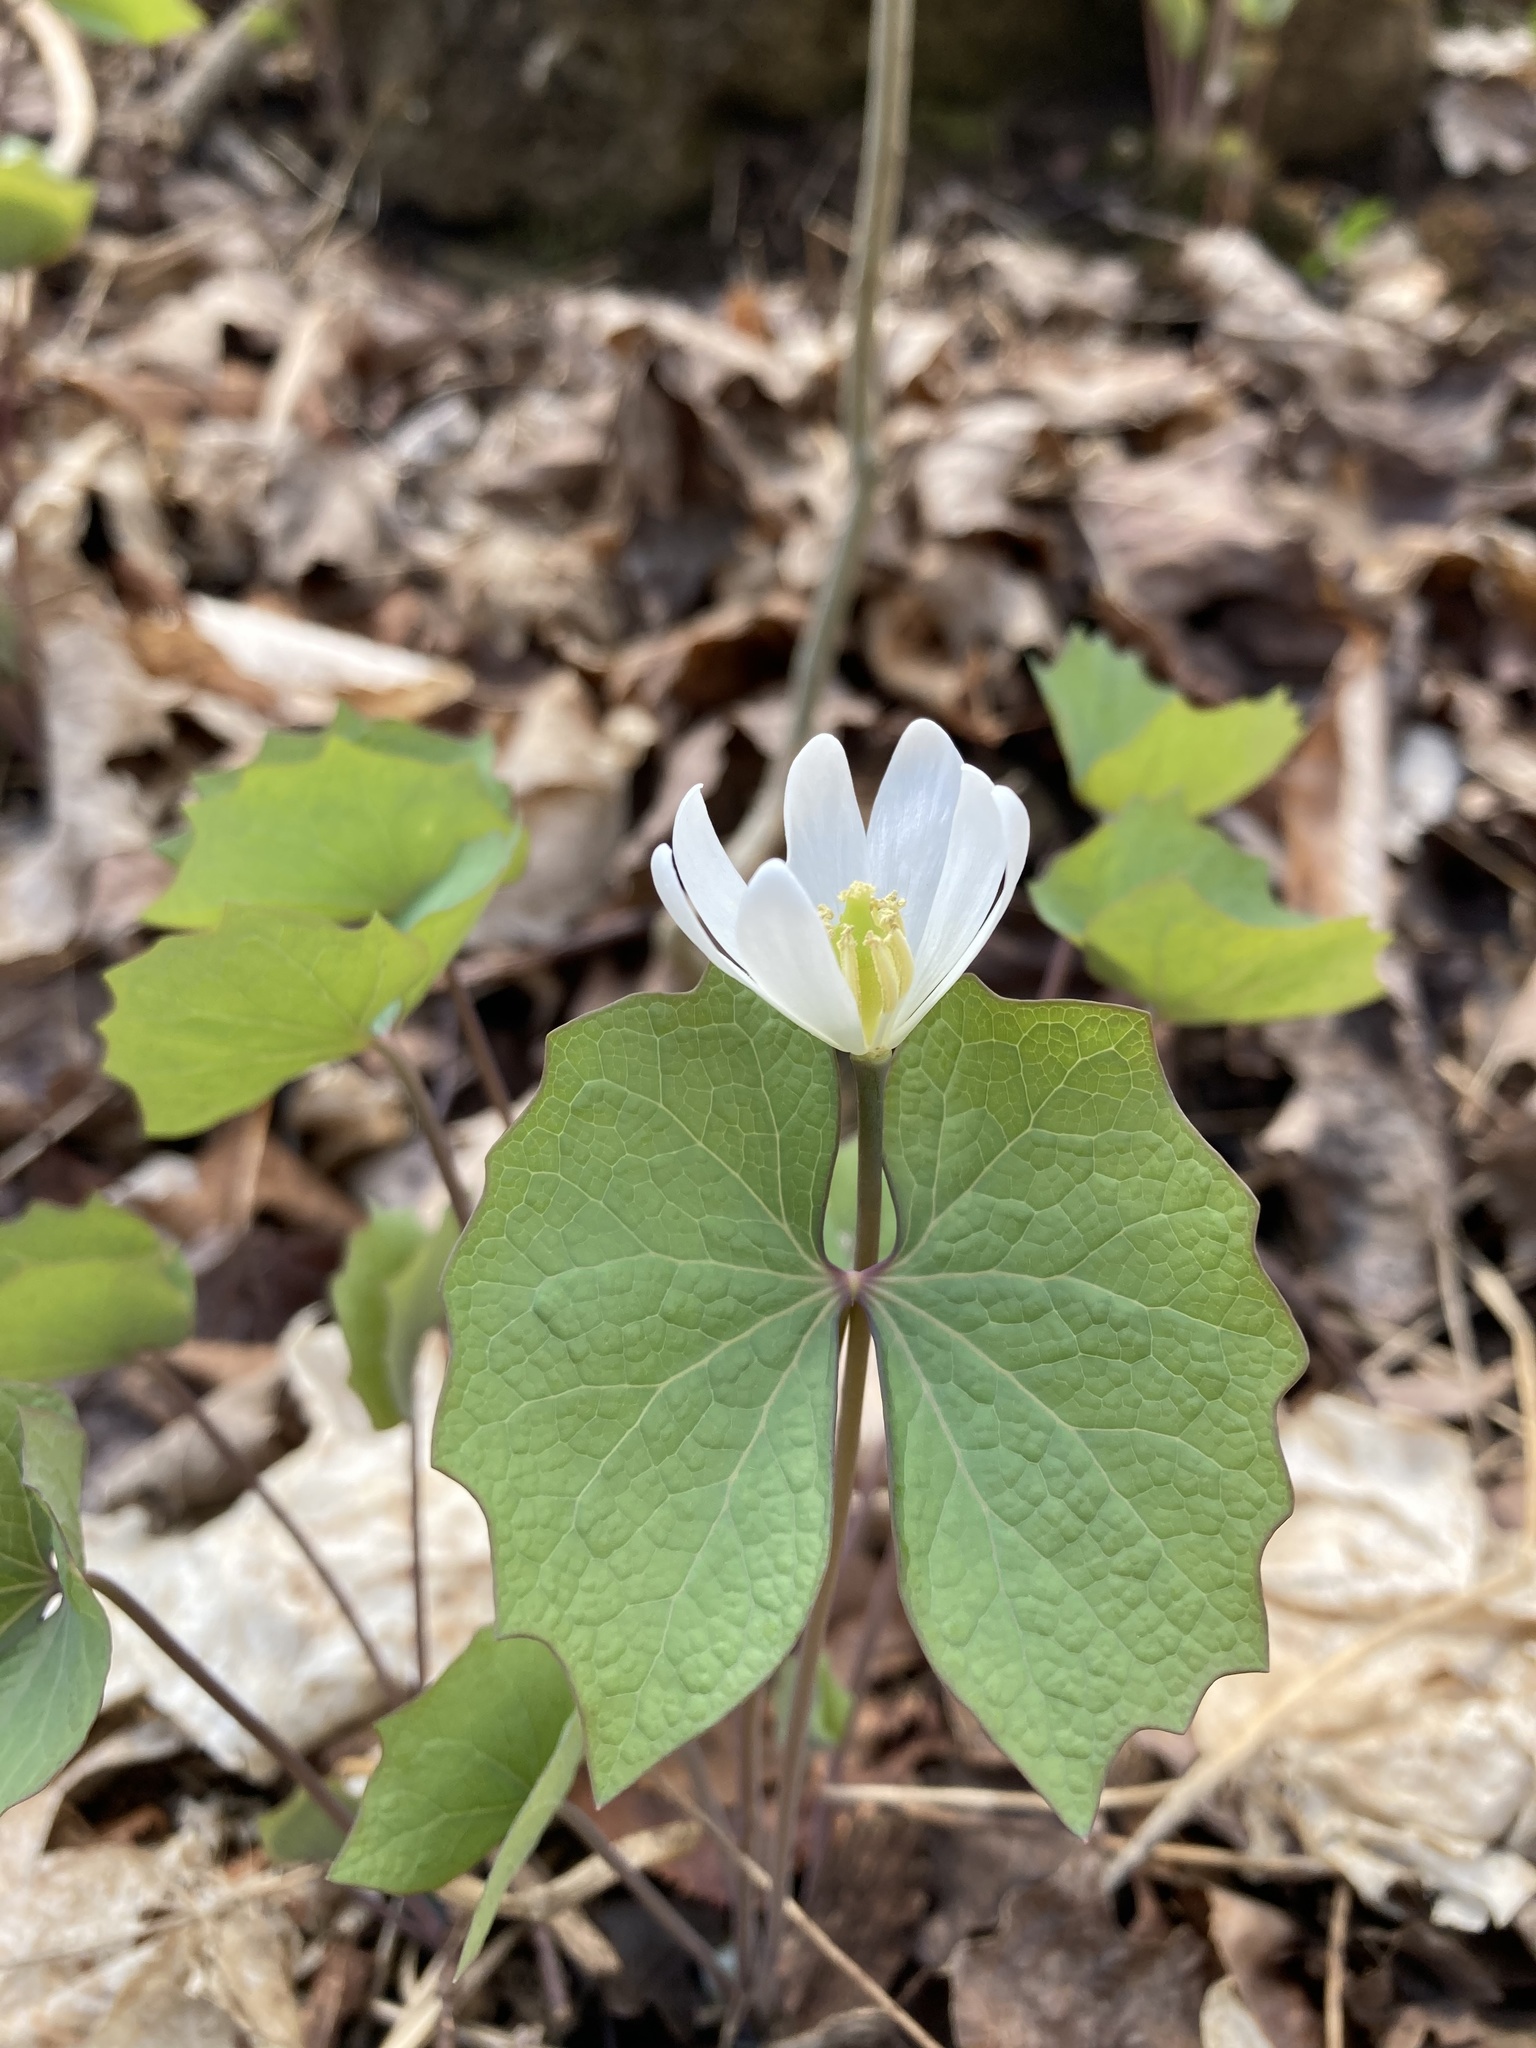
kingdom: Plantae
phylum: Tracheophyta
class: Magnoliopsida
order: Ranunculales
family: Berberidaceae
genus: Jeffersonia
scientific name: Jeffersonia diphylla
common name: Rheumatism-root
